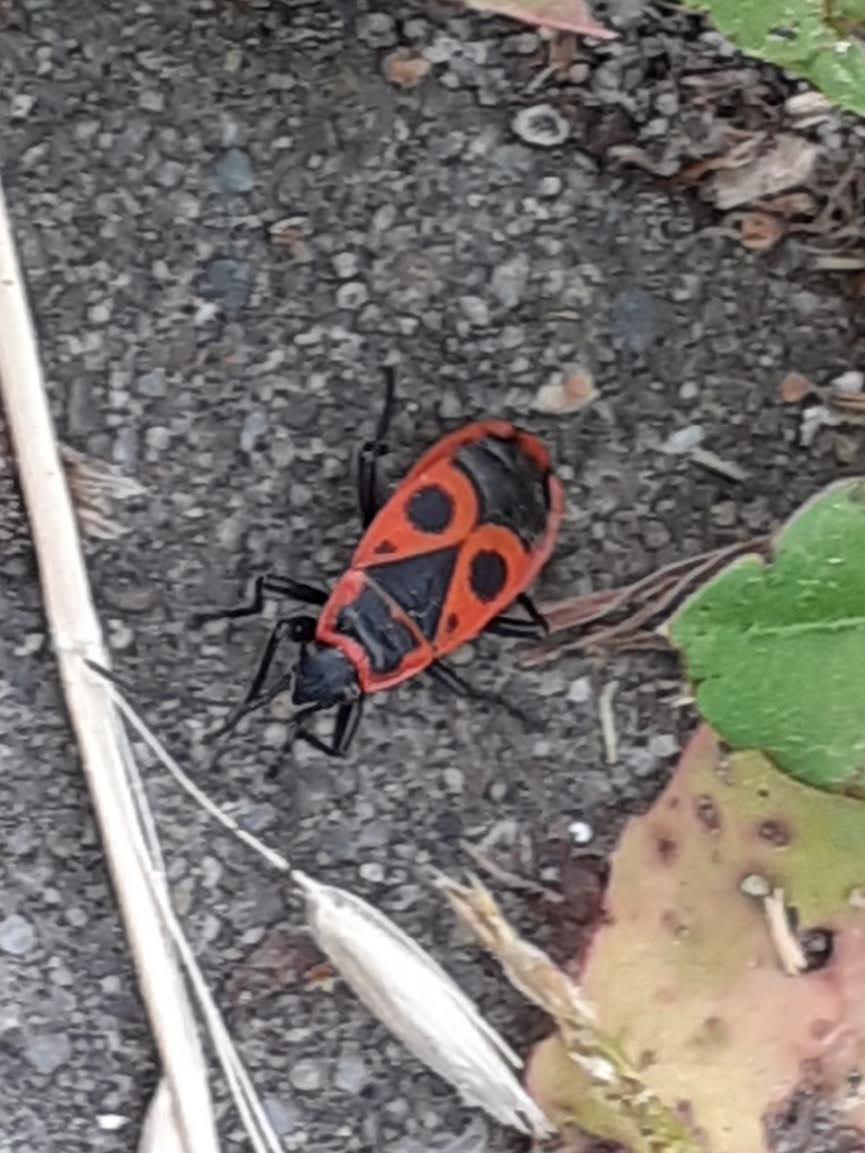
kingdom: Animalia
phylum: Arthropoda
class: Insecta
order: Hemiptera
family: Pyrrhocoridae
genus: Pyrrhocoris
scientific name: Pyrrhocoris apterus
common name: Firebug
